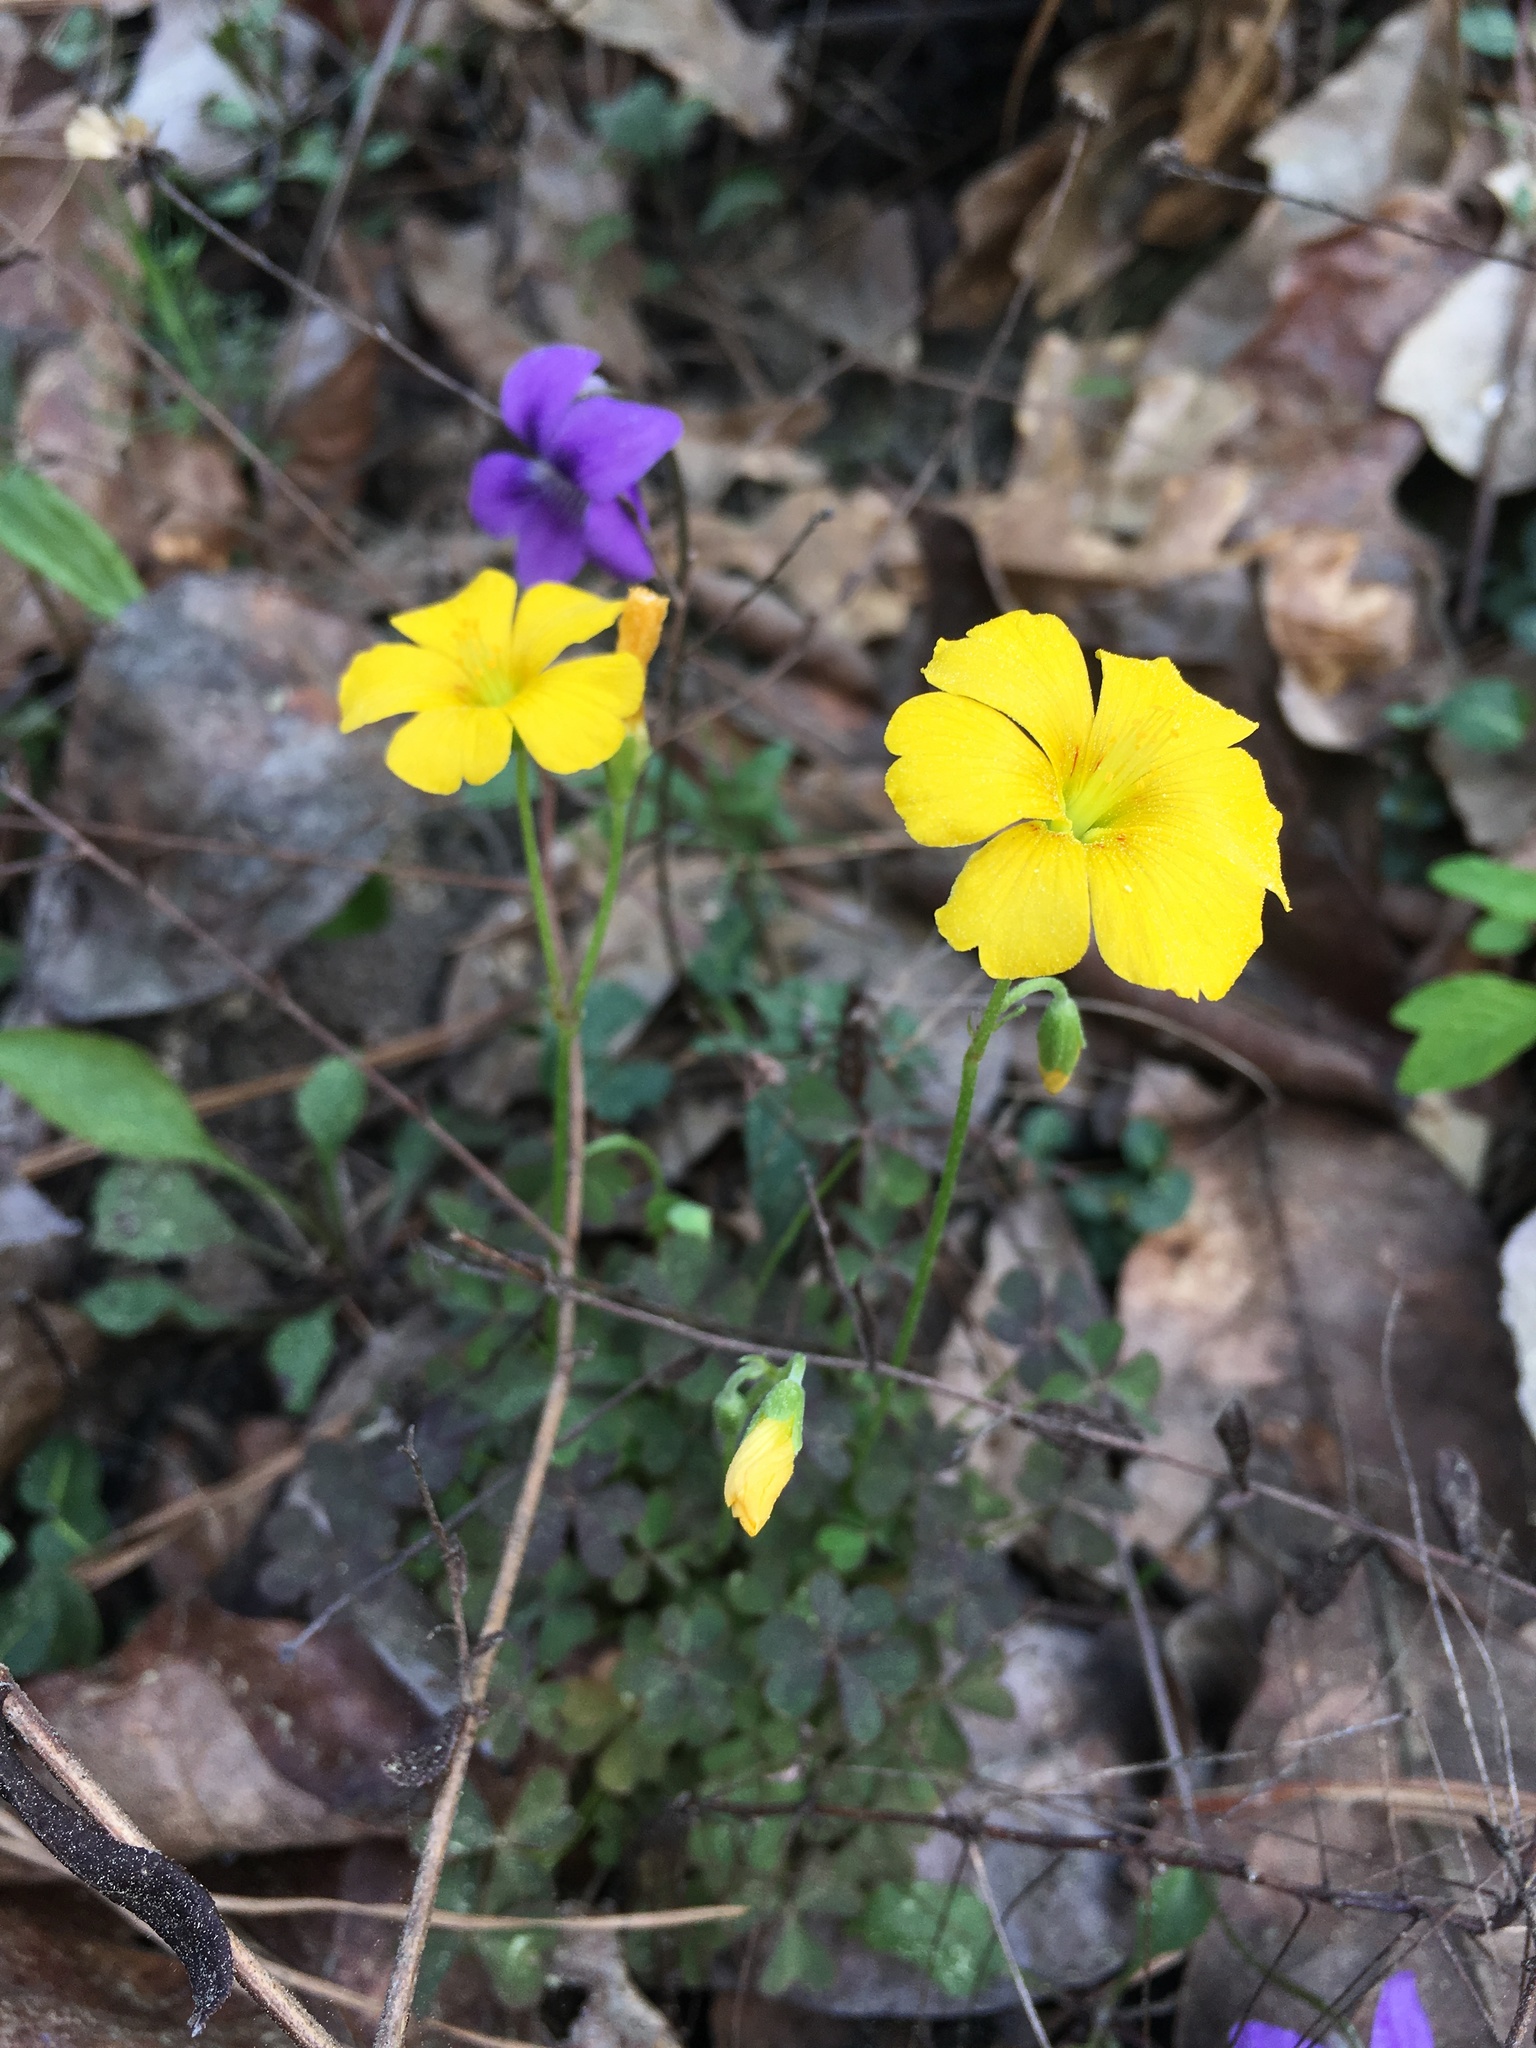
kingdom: Plantae
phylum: Tracheophyta
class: Magnoliopsida
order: Oxalidales
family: Oxalidaceae
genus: Oxalis
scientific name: Oxalis texana
